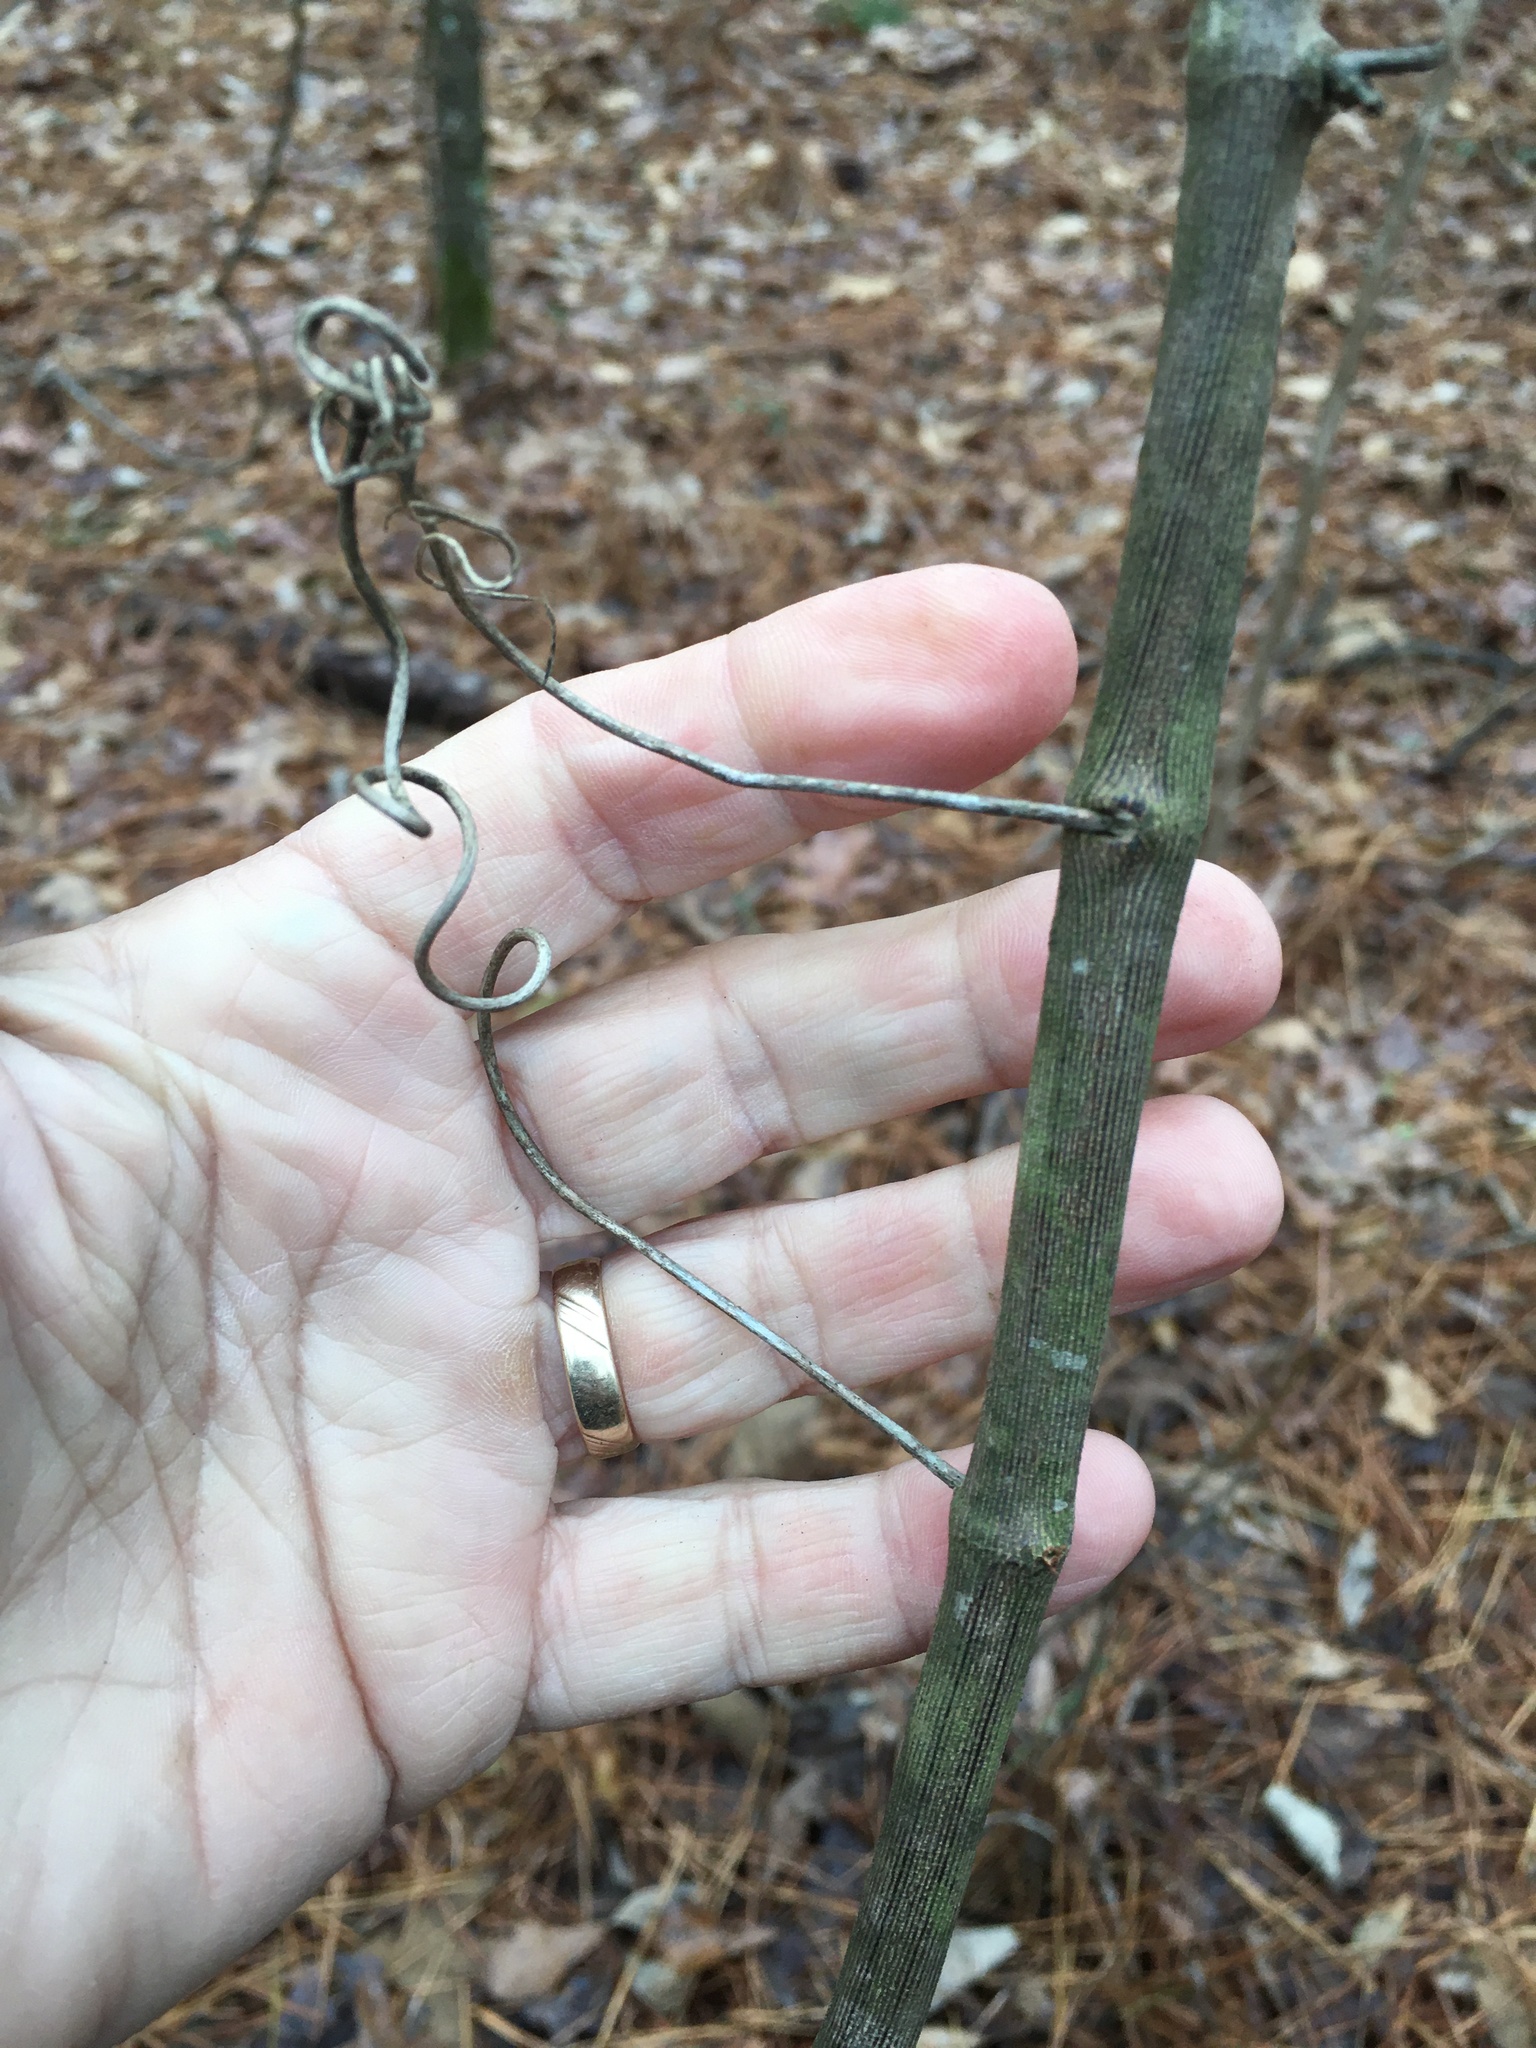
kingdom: Plantae
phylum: Tracheophyta
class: Liliopsida
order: Liliales
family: Smilacaceae
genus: Smilax
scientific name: Smilax maritima
